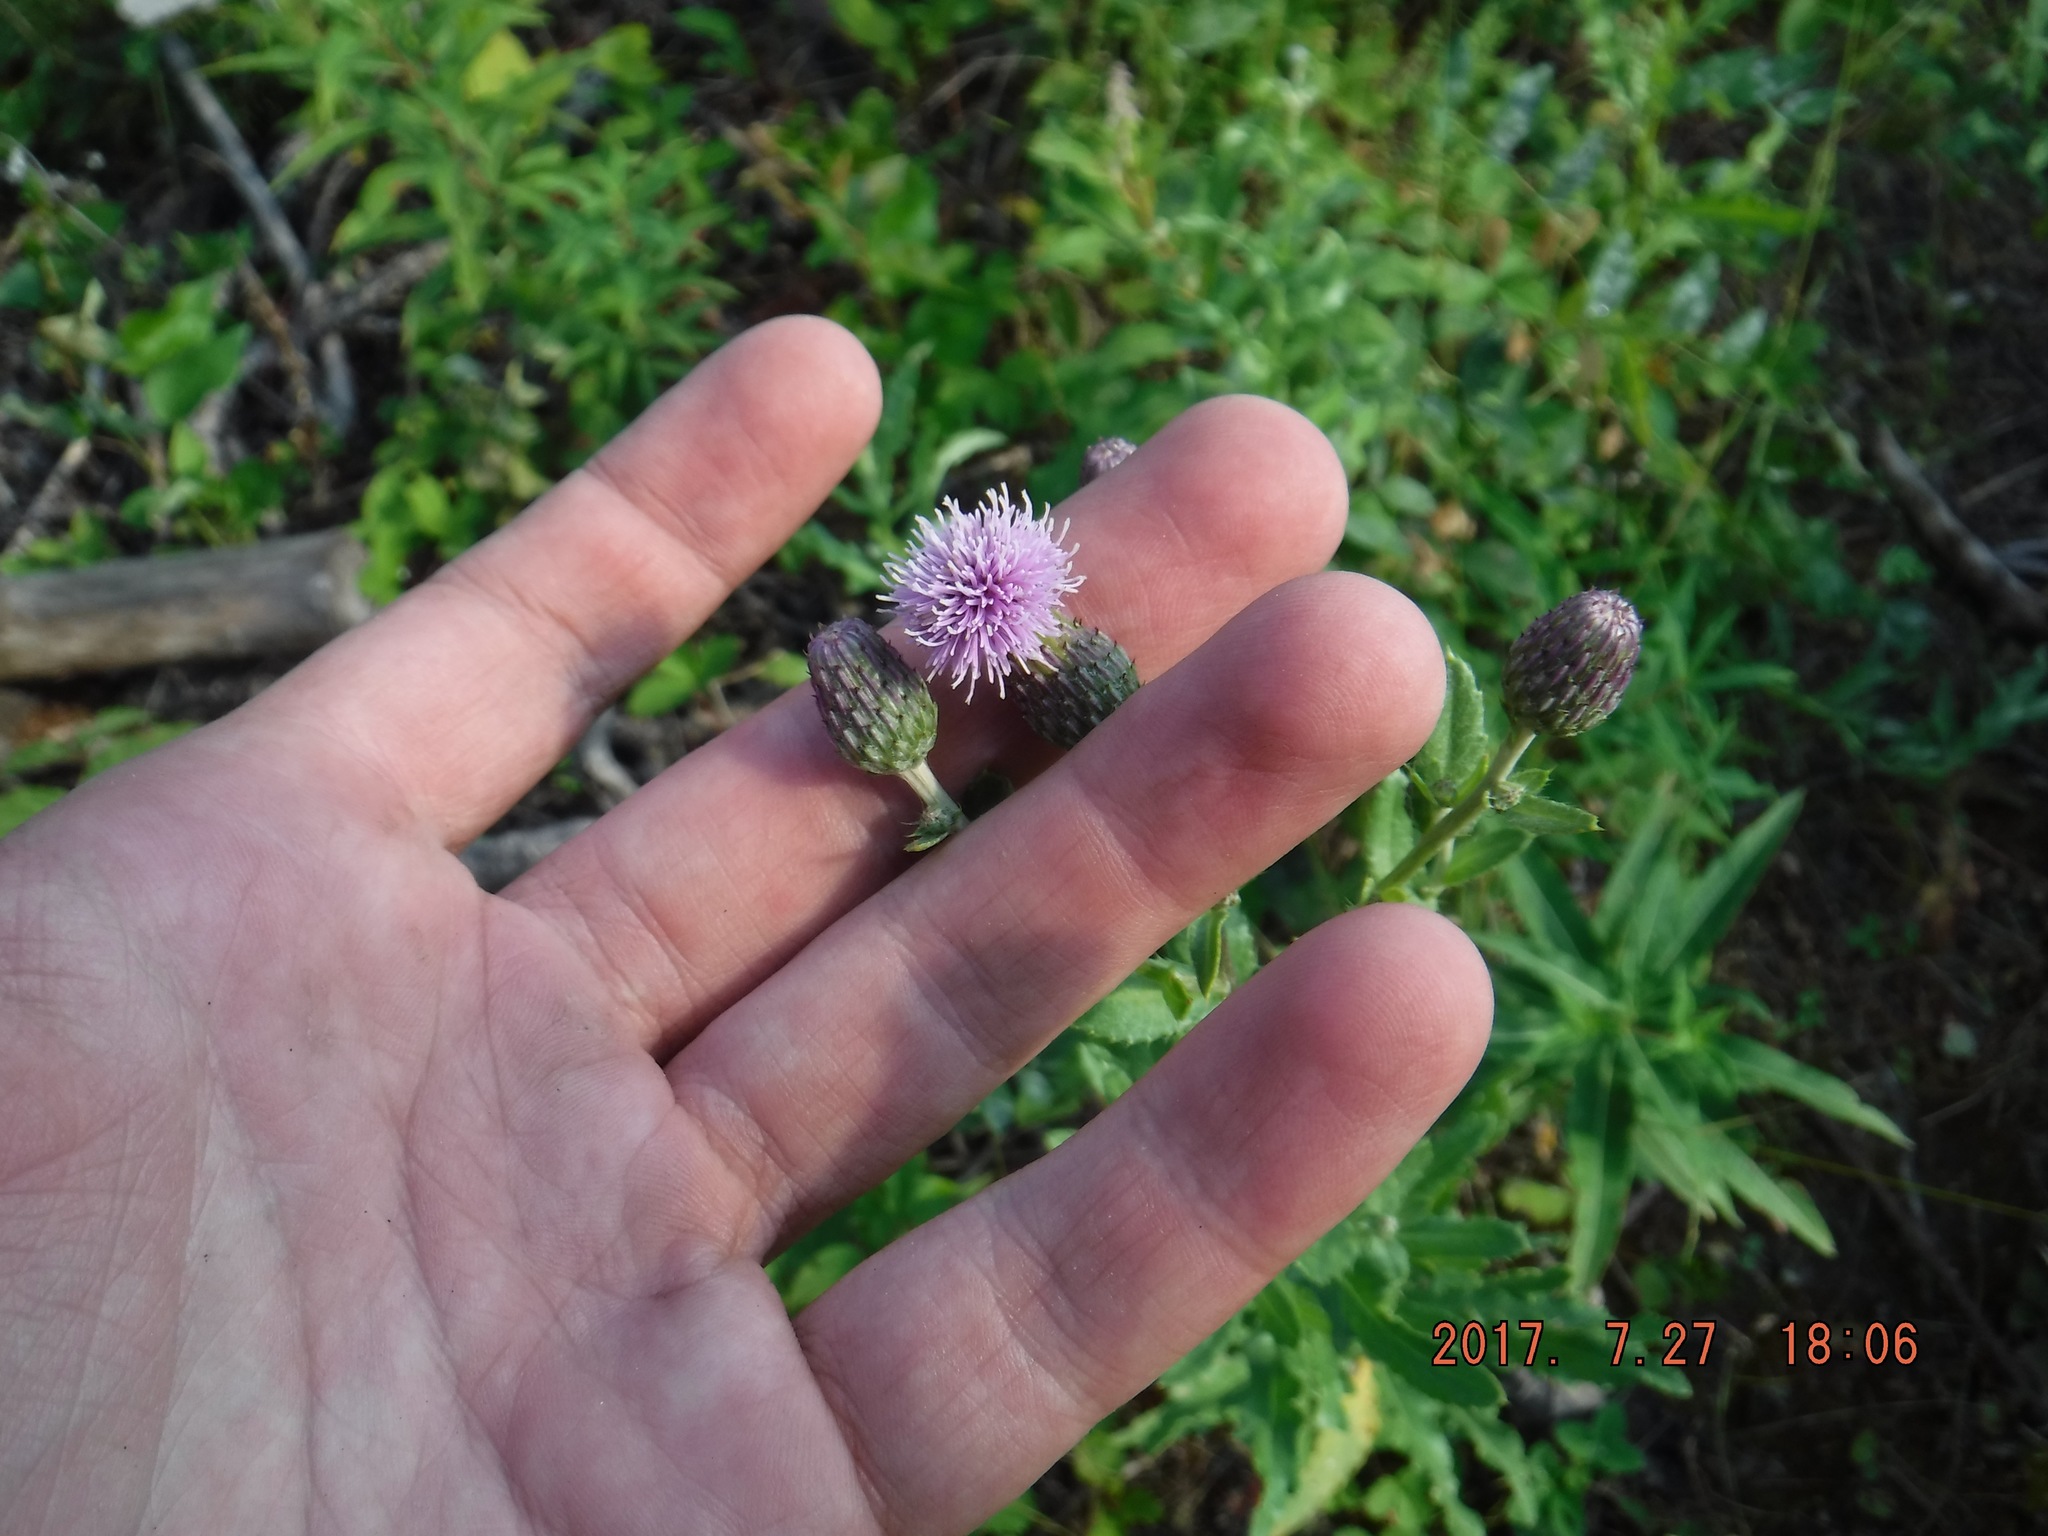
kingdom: Plantae
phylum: Tracheophyta
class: Magnoliopsida
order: Asterales
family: Asteraceae
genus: Cirsium
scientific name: Cirsium arvense
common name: Creeping thistle
